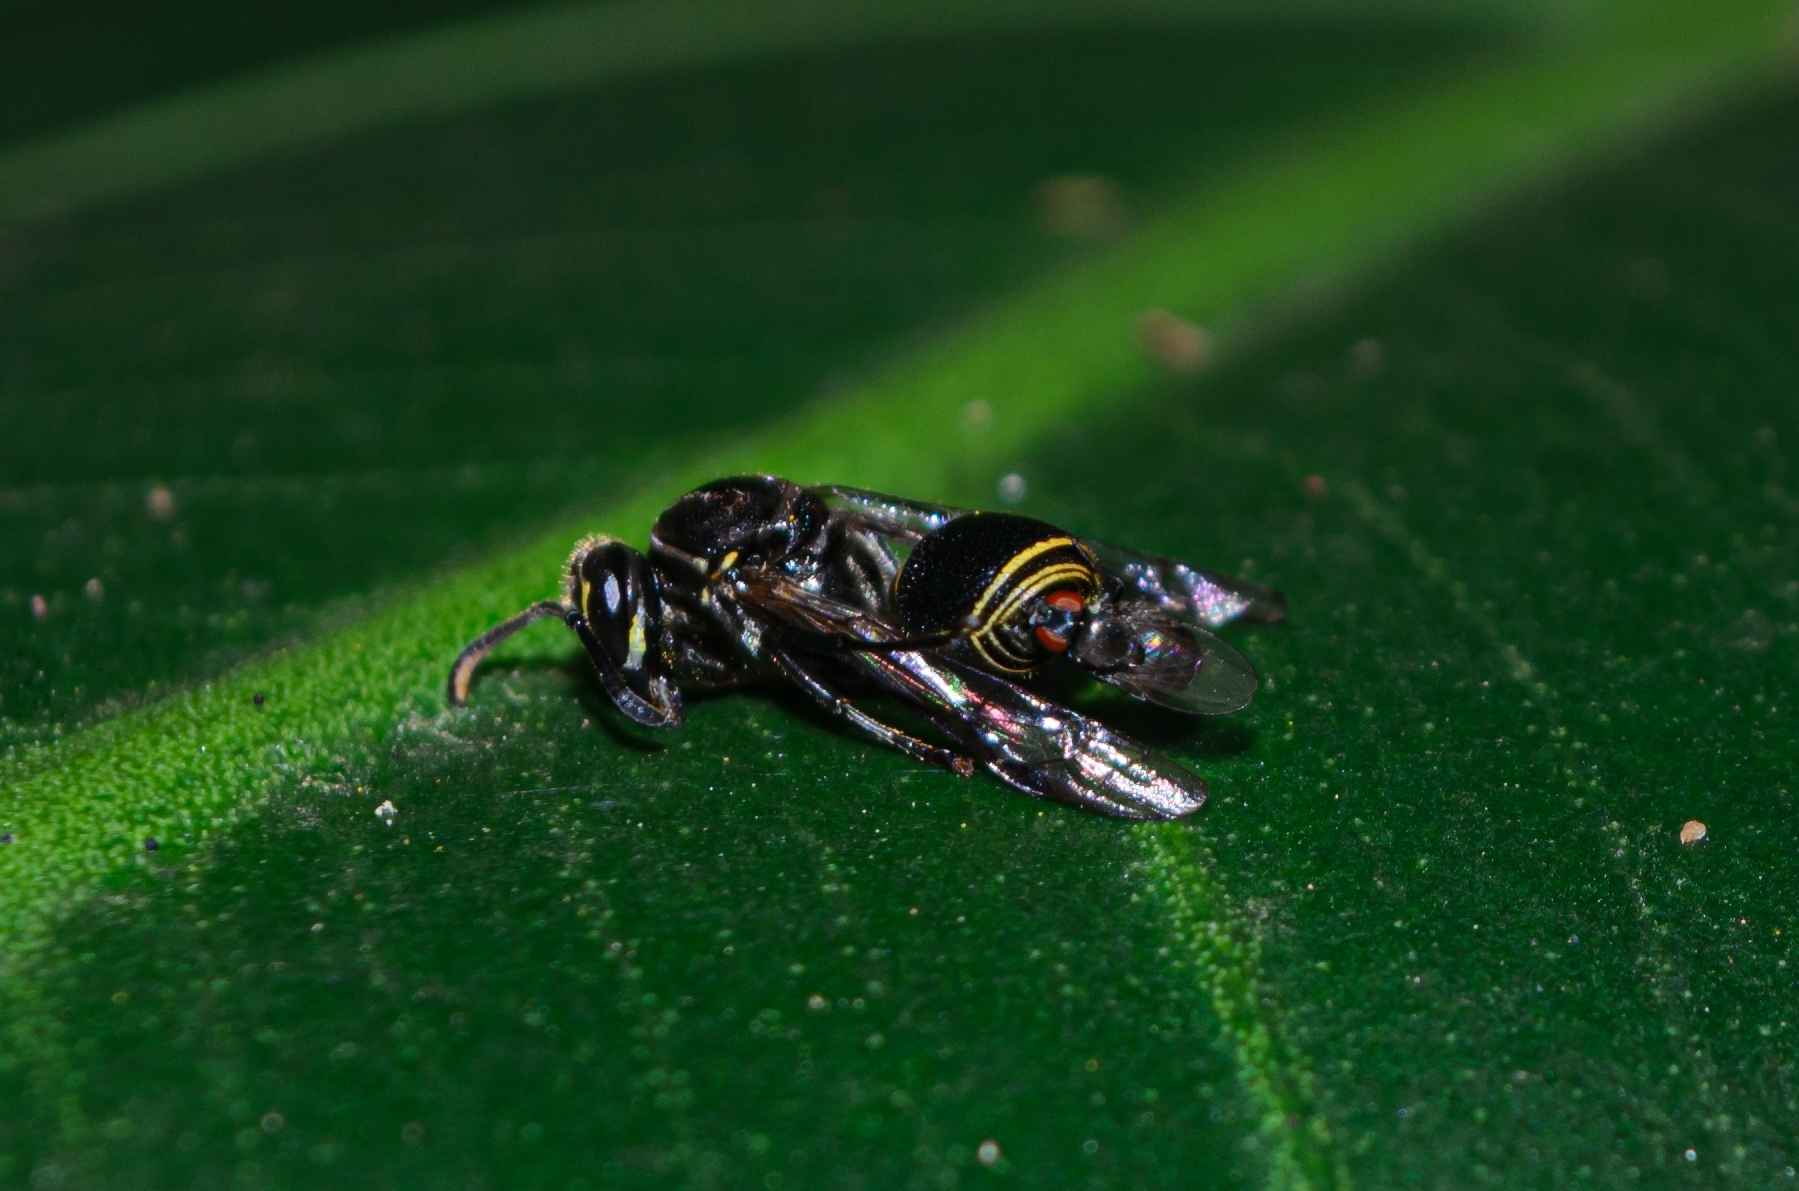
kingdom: Animalia
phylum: Arthropoda
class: Insecta
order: Hymenoptera
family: Vespidae
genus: Protonectarina
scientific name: Protonectarina sylveirae
